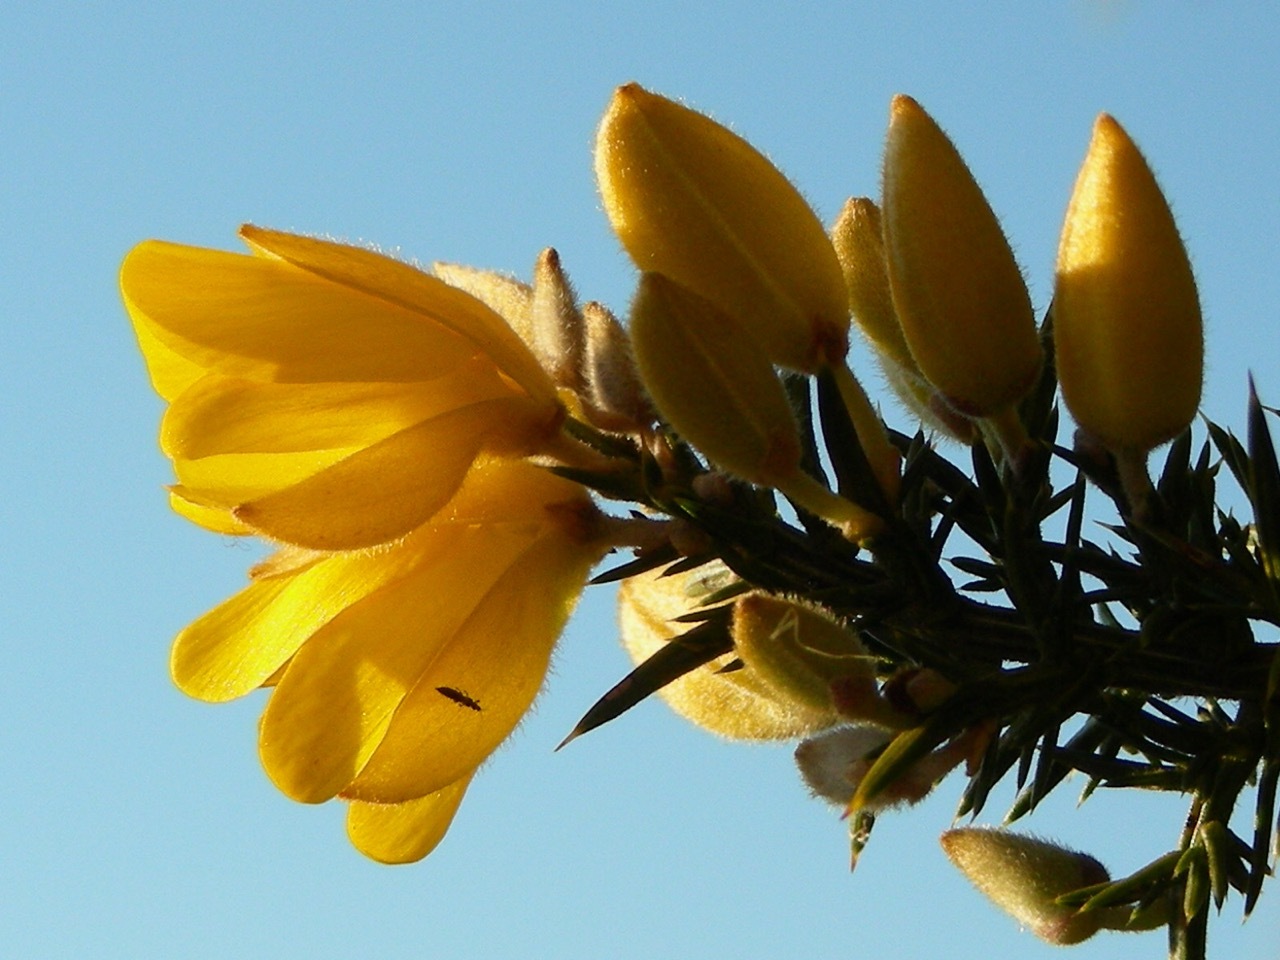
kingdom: Plantae
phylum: Tracheophyta
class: Magnoliopsida
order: Fabales
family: Fabaceae
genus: Ulex
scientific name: Ulex europaeus
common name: Common gorse
